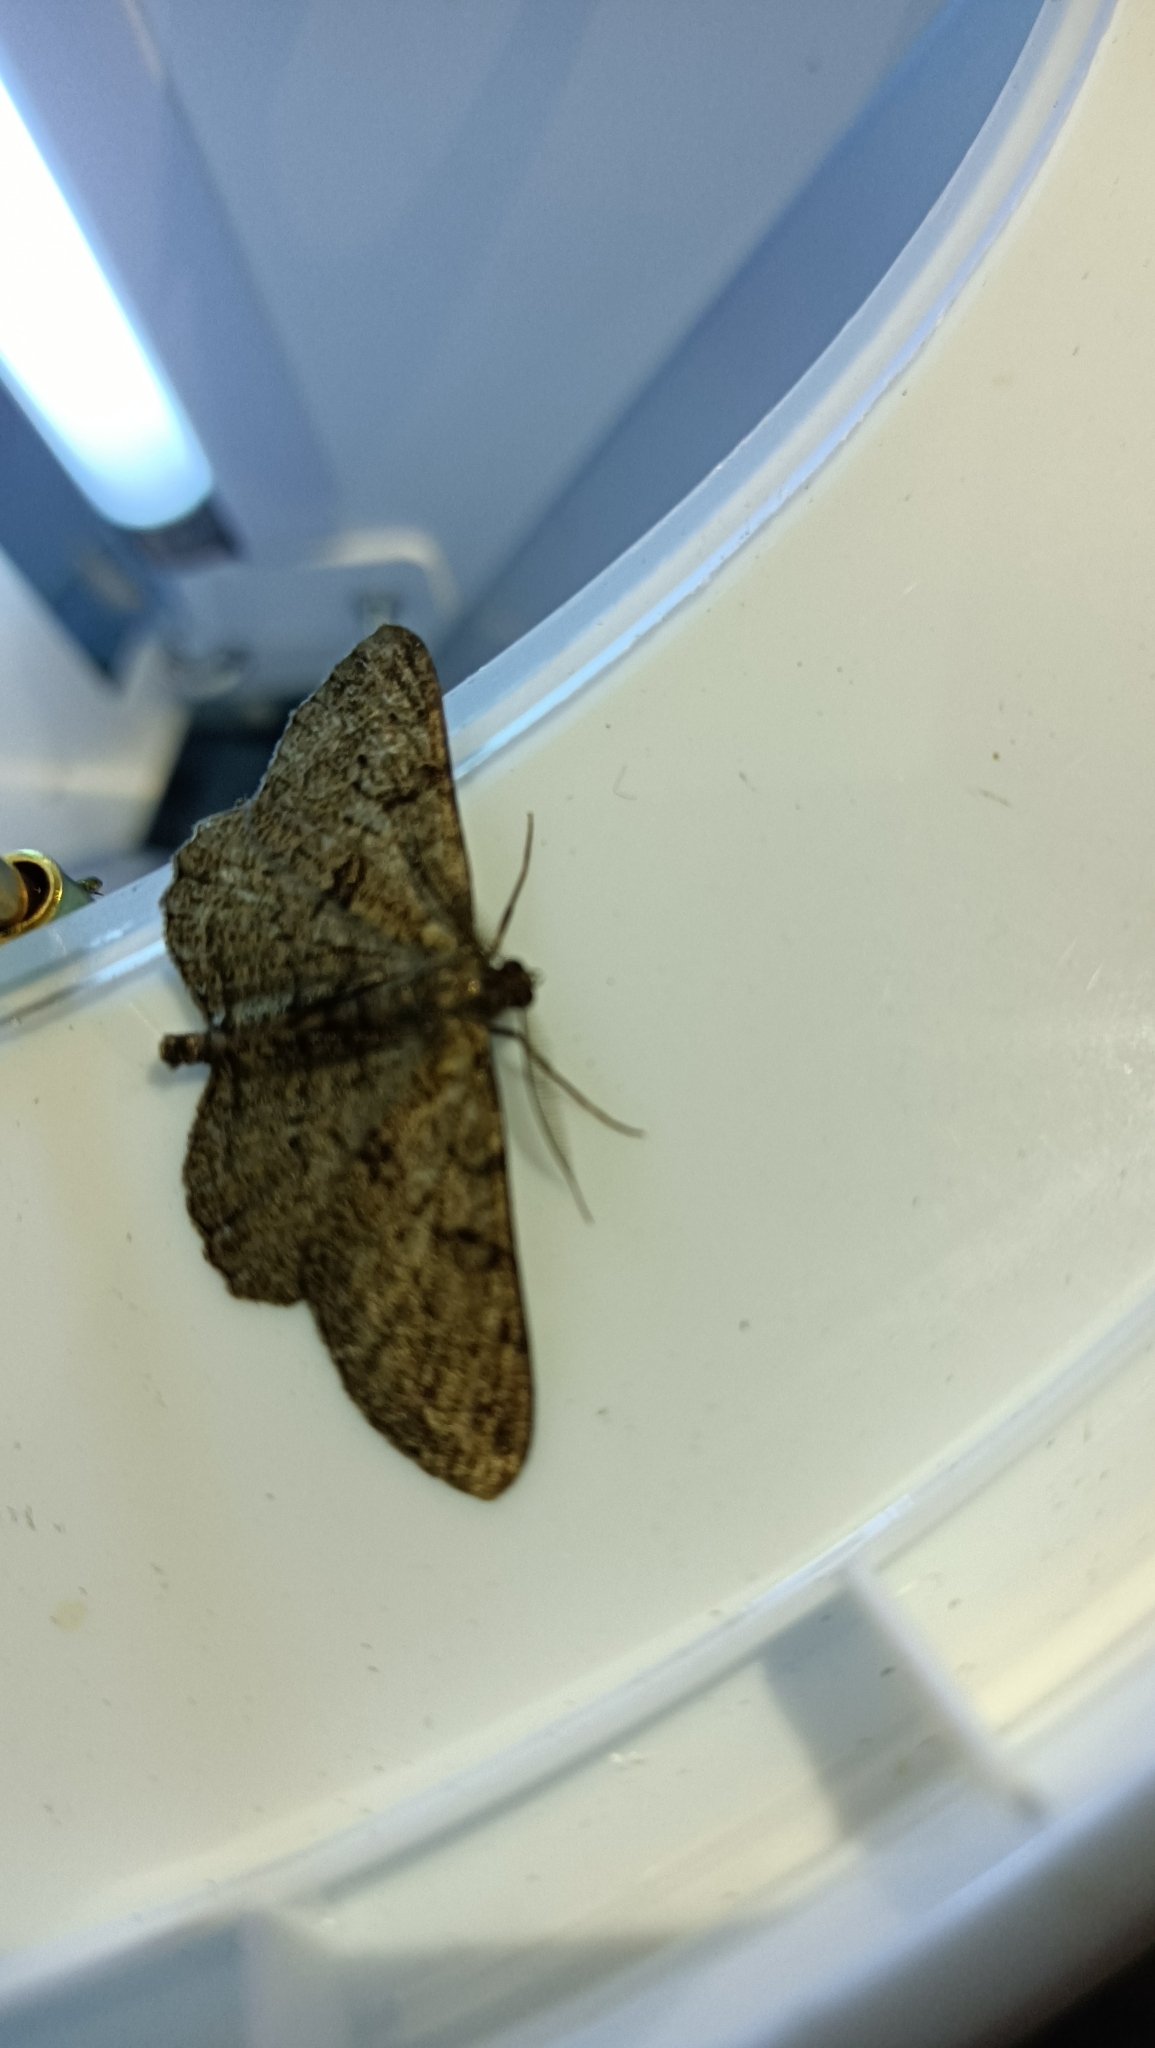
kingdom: Animalia
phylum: Arthropoda
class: Insecta
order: Lepidoptera
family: Geometridae
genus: Peribatodes
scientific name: Peribatodes rhomboidaria
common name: Willow beauty
